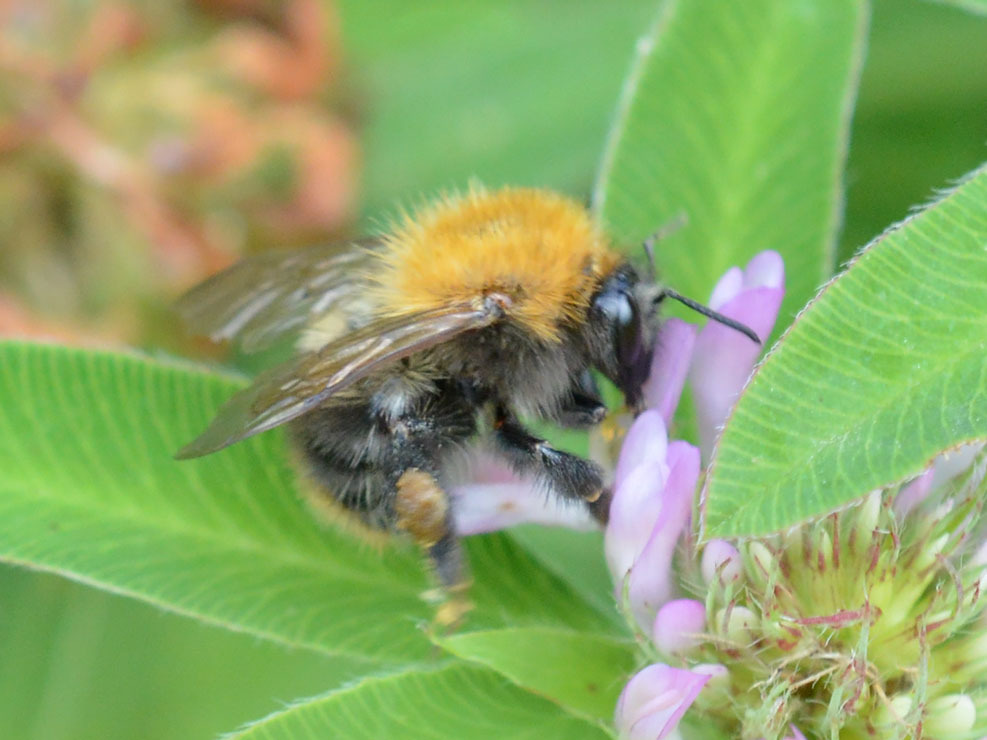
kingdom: Animalia
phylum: Arthropoda
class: Insecta
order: Hymenoptera
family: Apidae
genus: Bombus
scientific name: Bombus pascuorum
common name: Common carder bee
